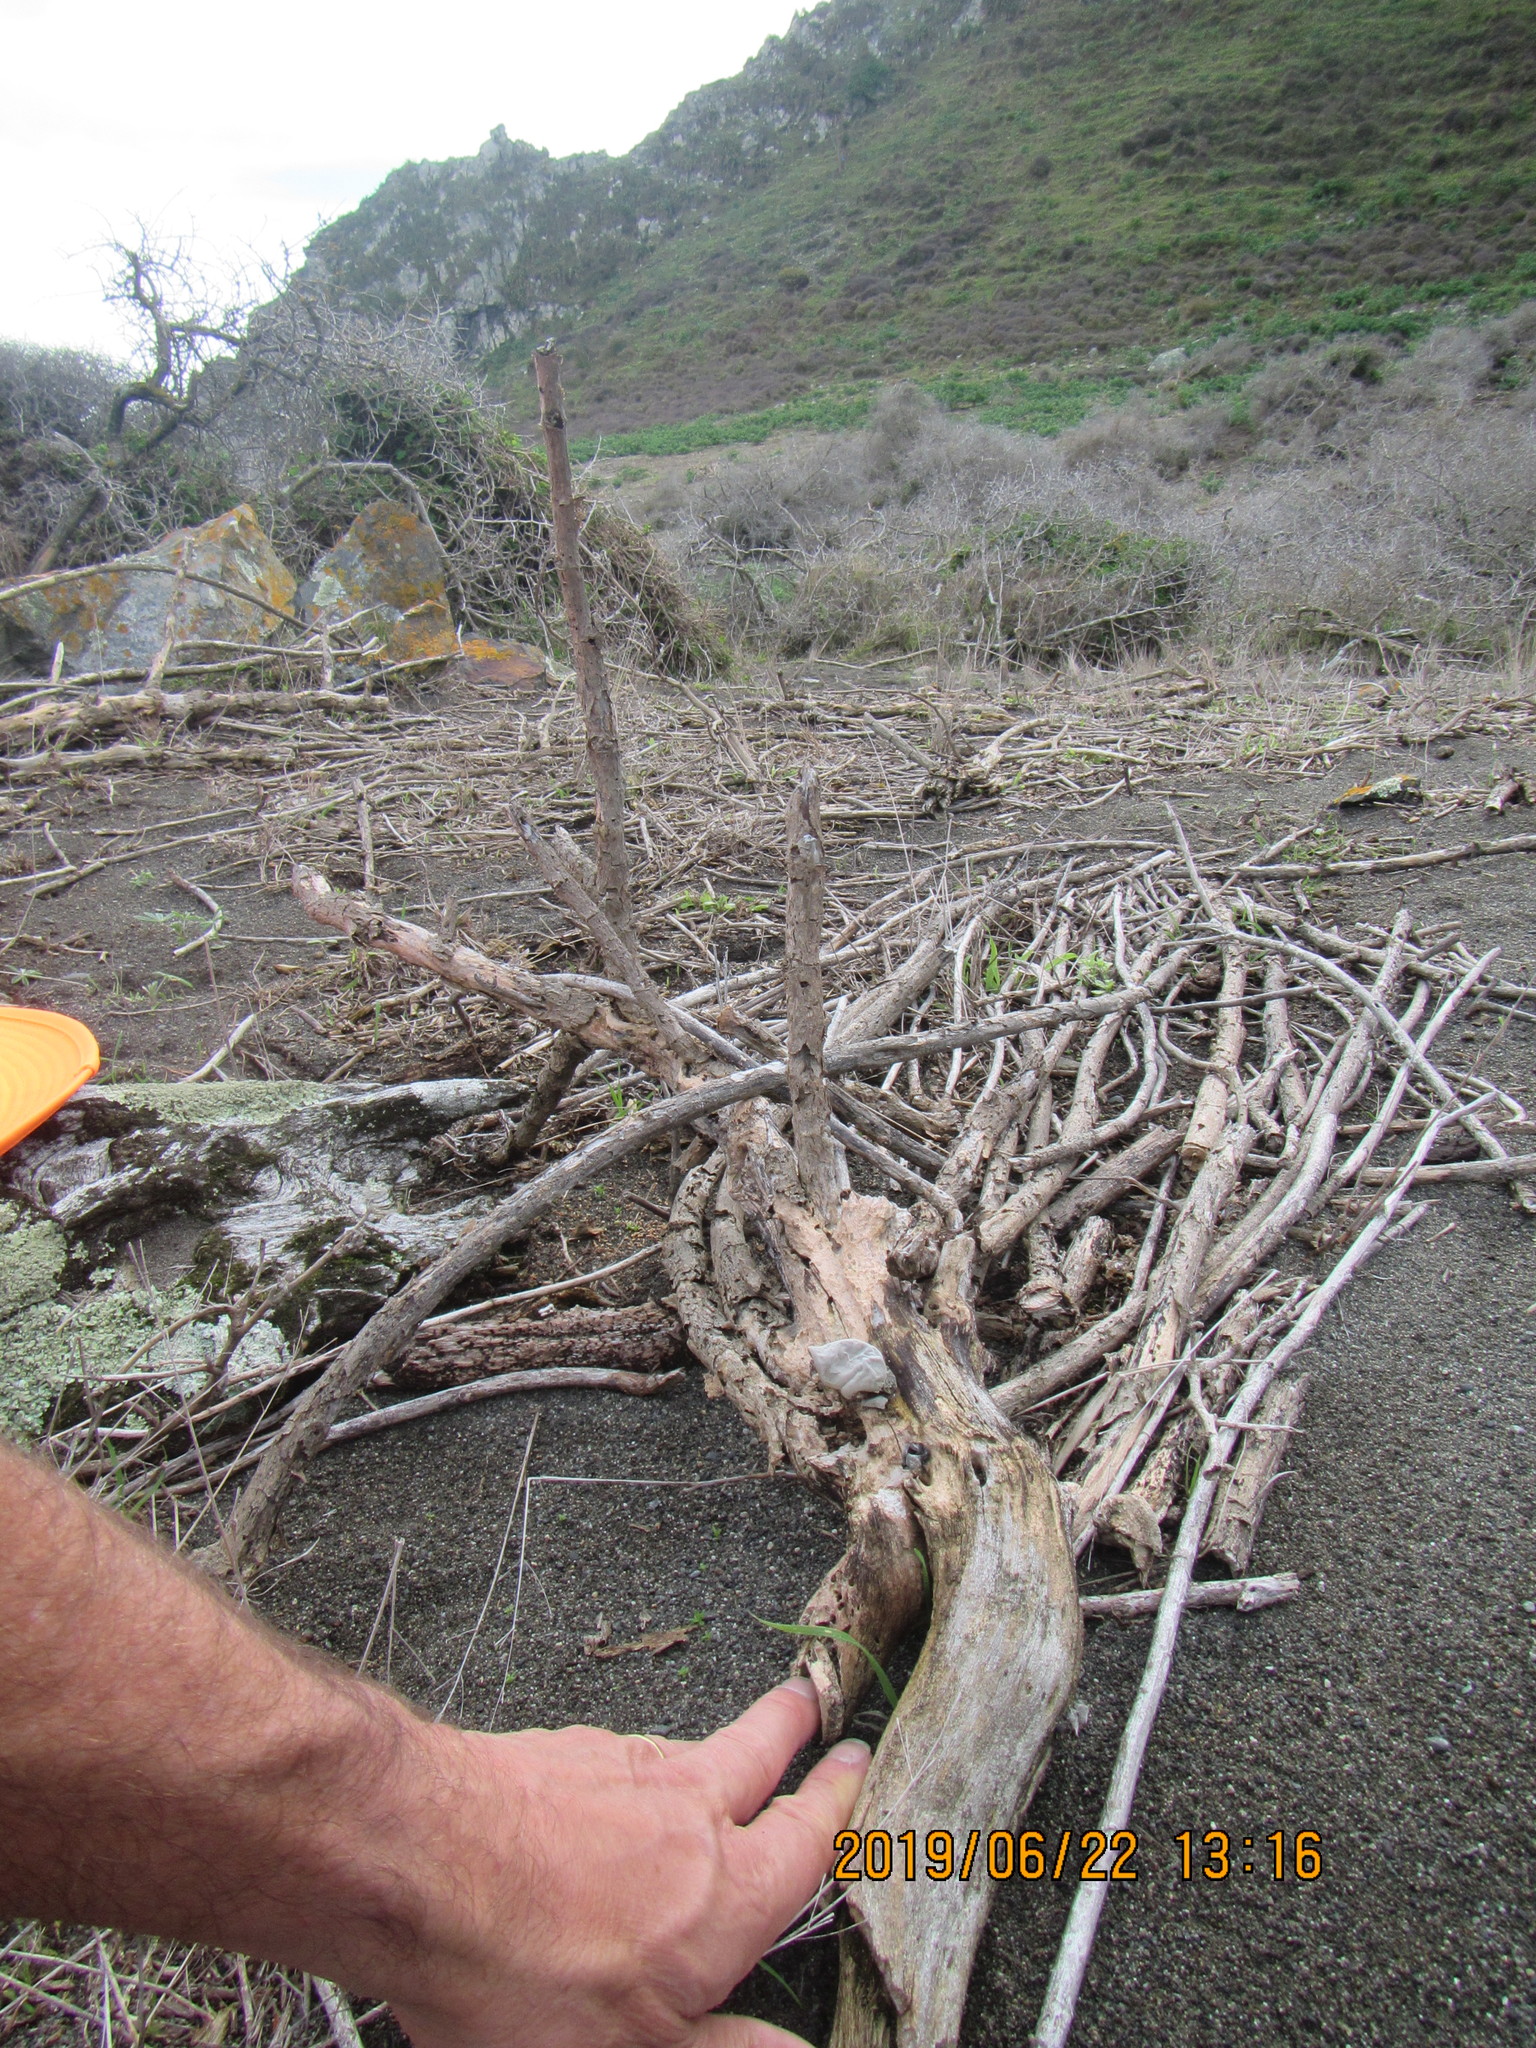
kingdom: Fungi
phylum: Basidiomycota
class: Agaricomycetes
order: Auriculariales
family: Auriculariaceae
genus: Auricularia
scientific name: Auricularia cornea
